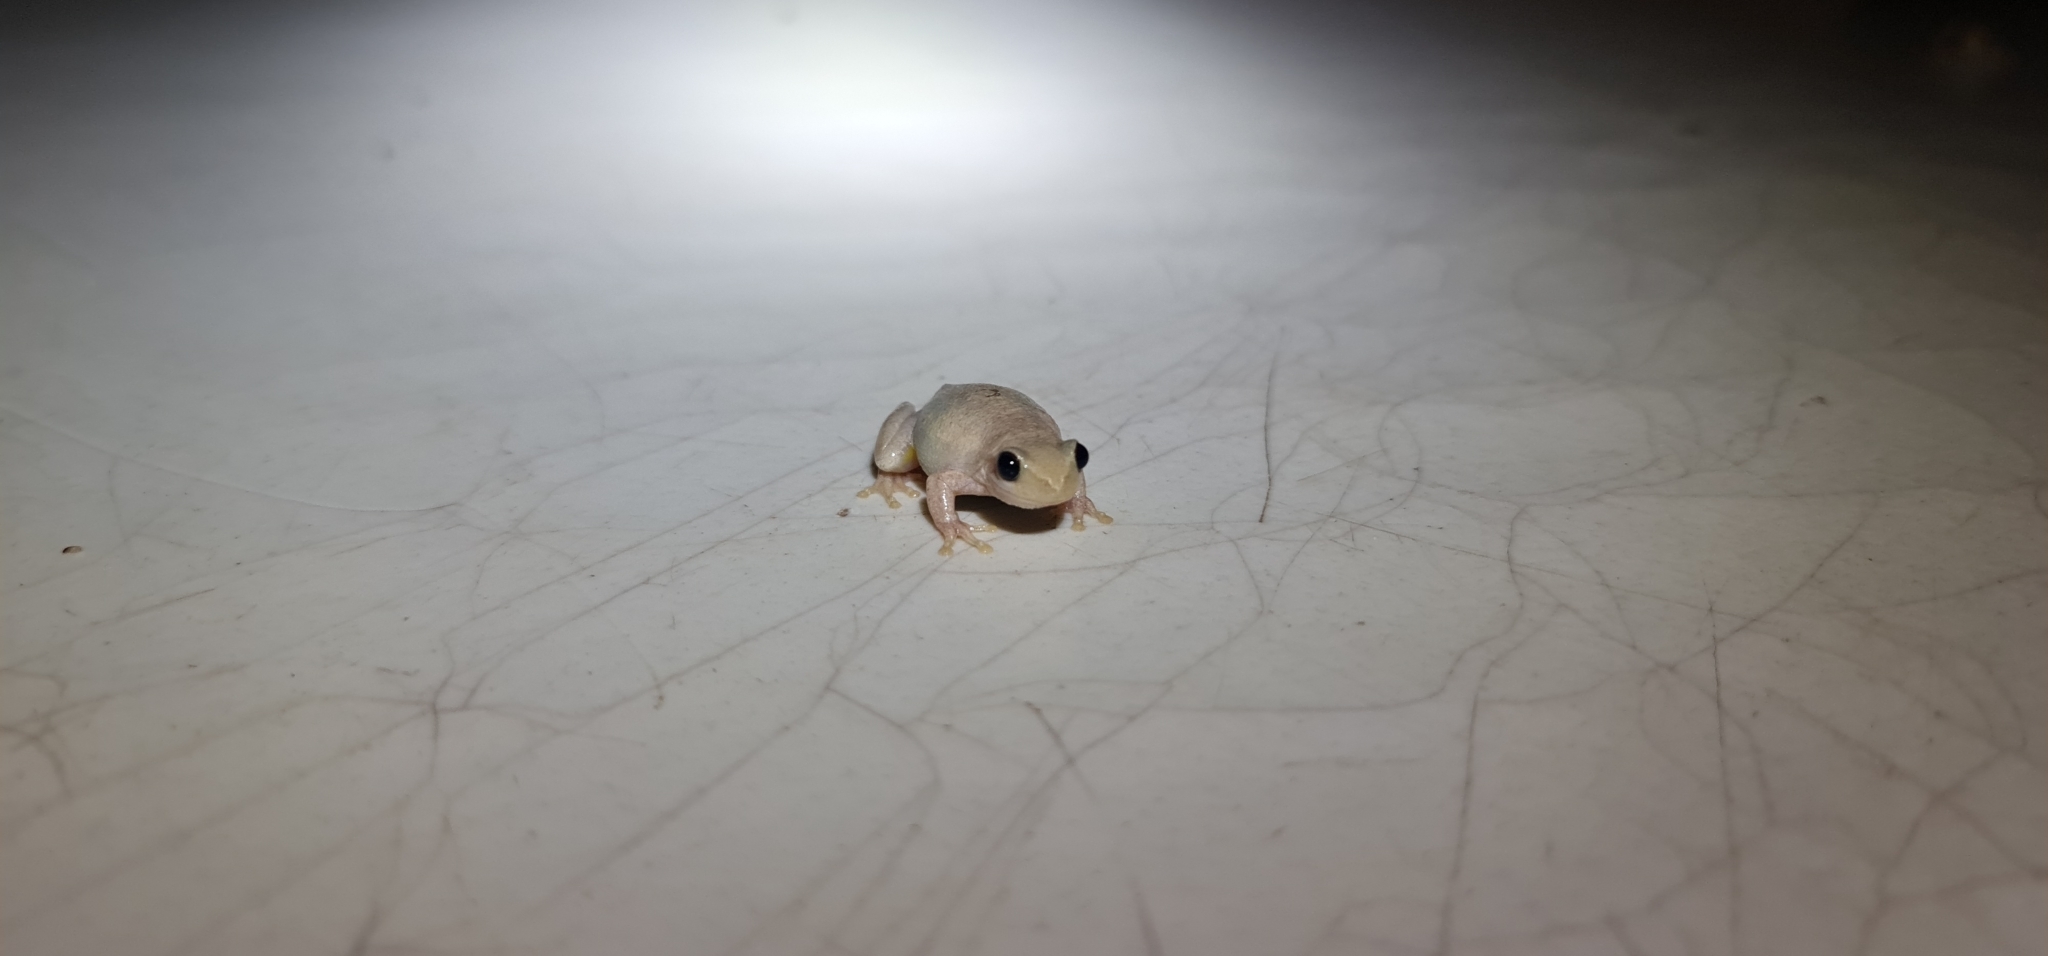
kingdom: Animalia
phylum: Chordata
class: Amphibia
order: Anura
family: Pelodryadidae
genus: Litoria
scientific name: Litoria rubella
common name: Desert tree frog
